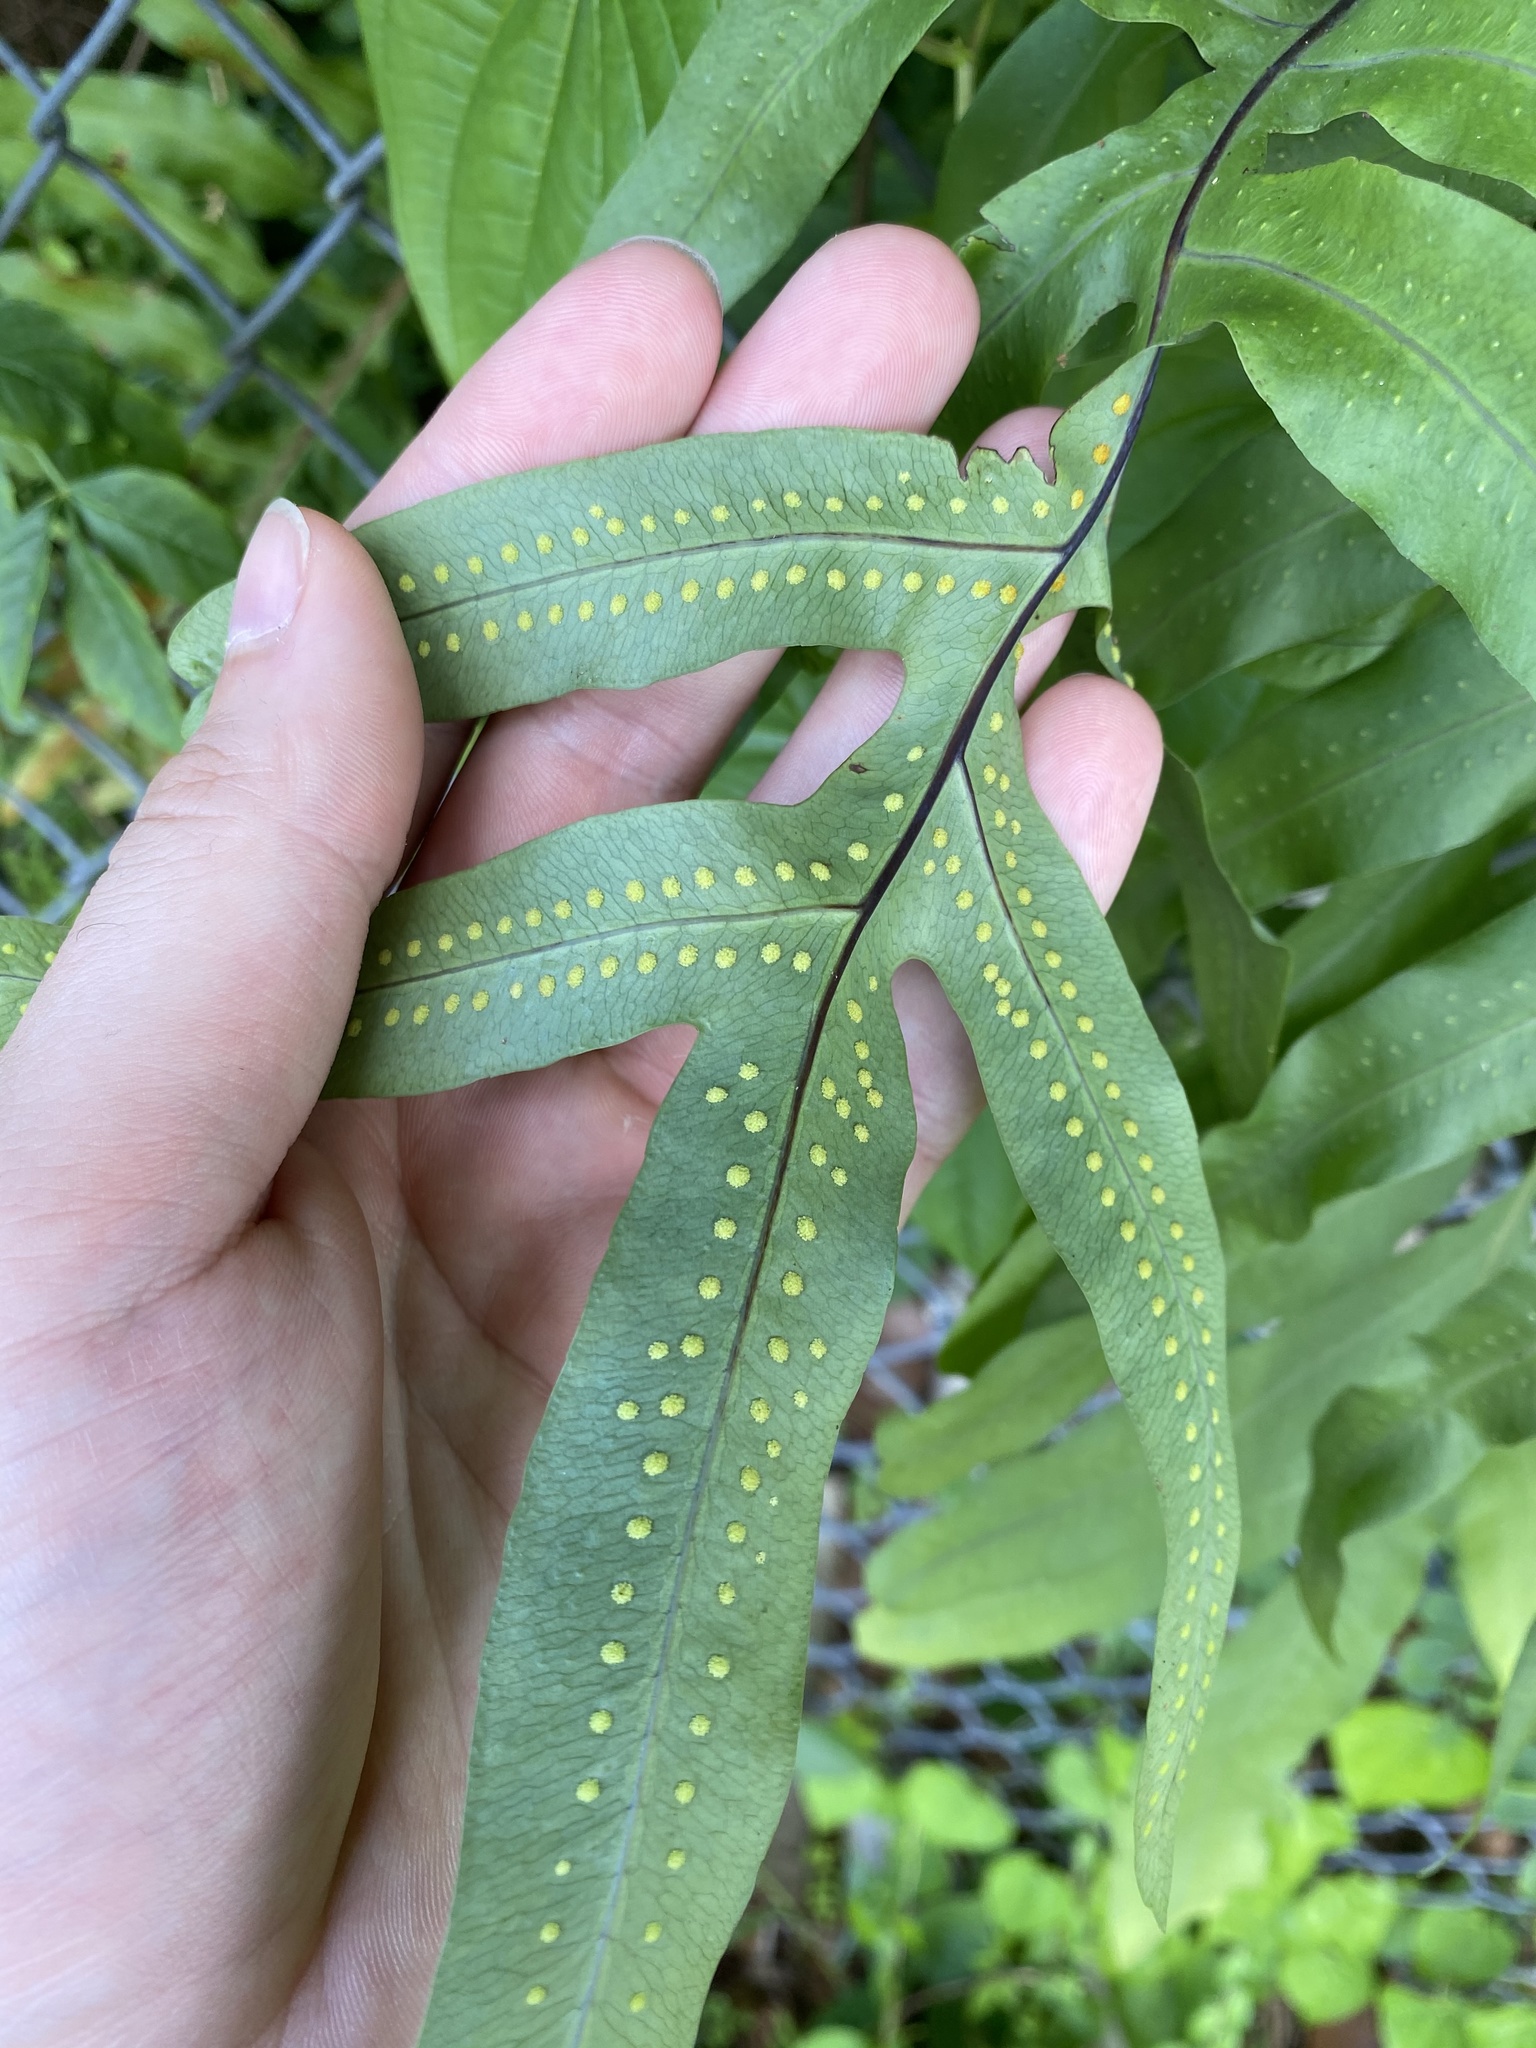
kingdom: Plantae
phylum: Tracheophyta
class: Polypodiopsida
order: Polypodiales
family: Polypodiaceae
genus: Phlebodium
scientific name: Phlebodium aureum
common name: Gold-foot fern
